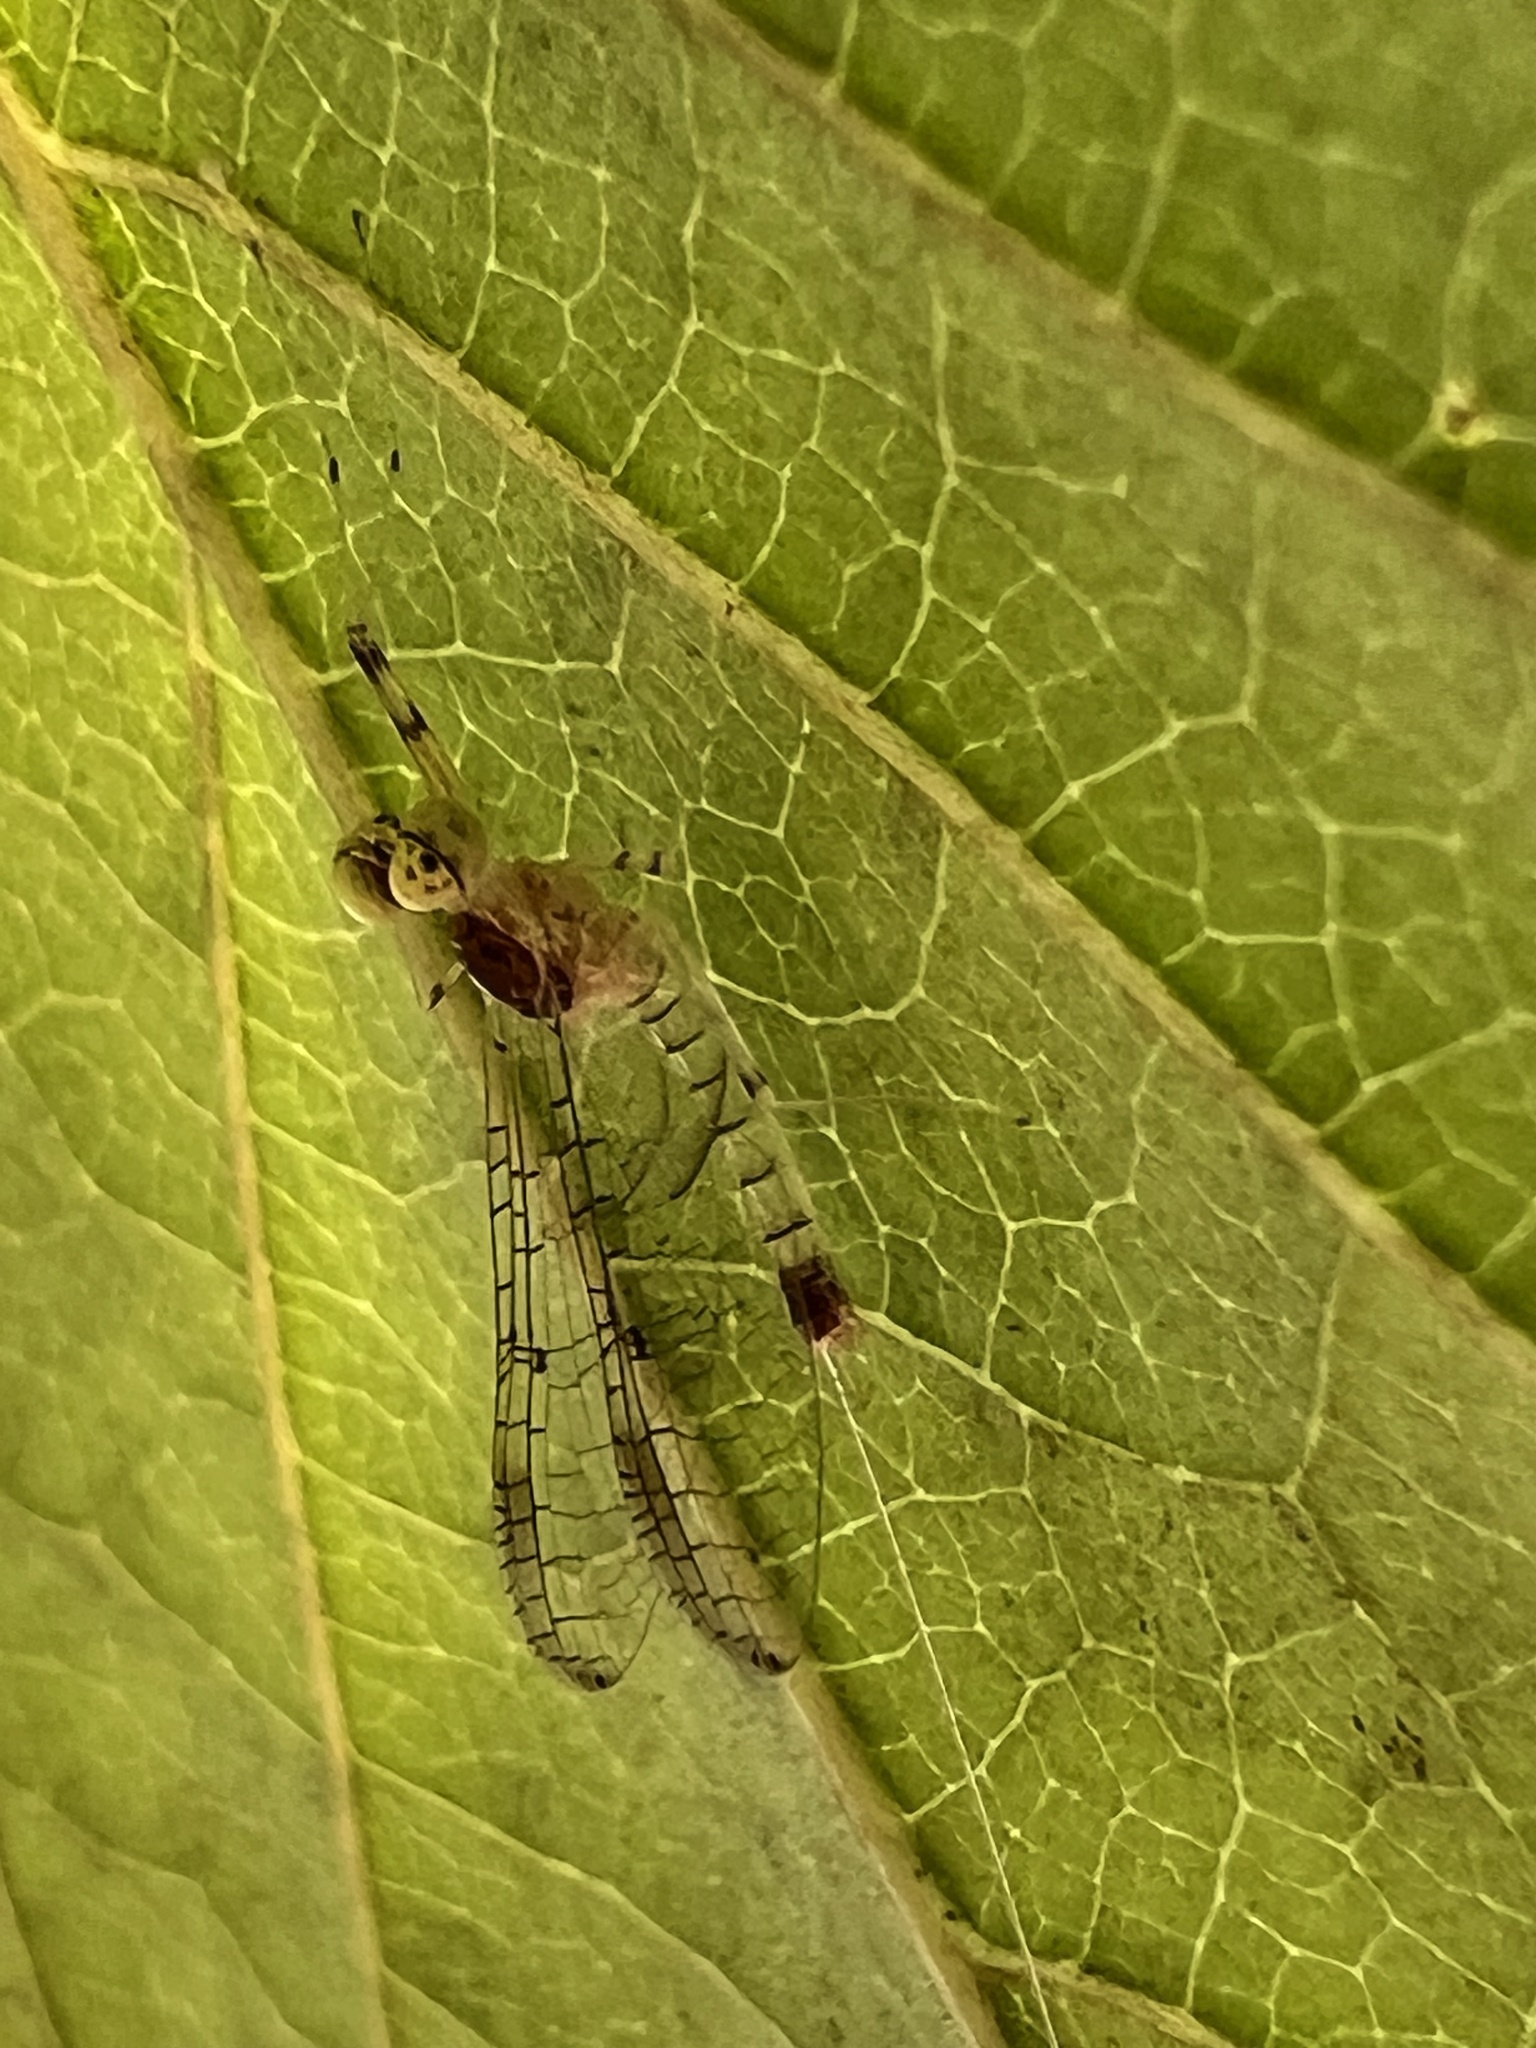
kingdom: Animalia
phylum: Arthropoda
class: Insecta
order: Ephemeroptera
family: Heptageniidae
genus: Stenacron
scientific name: Stenacron interpunctatum
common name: Orange cahill
